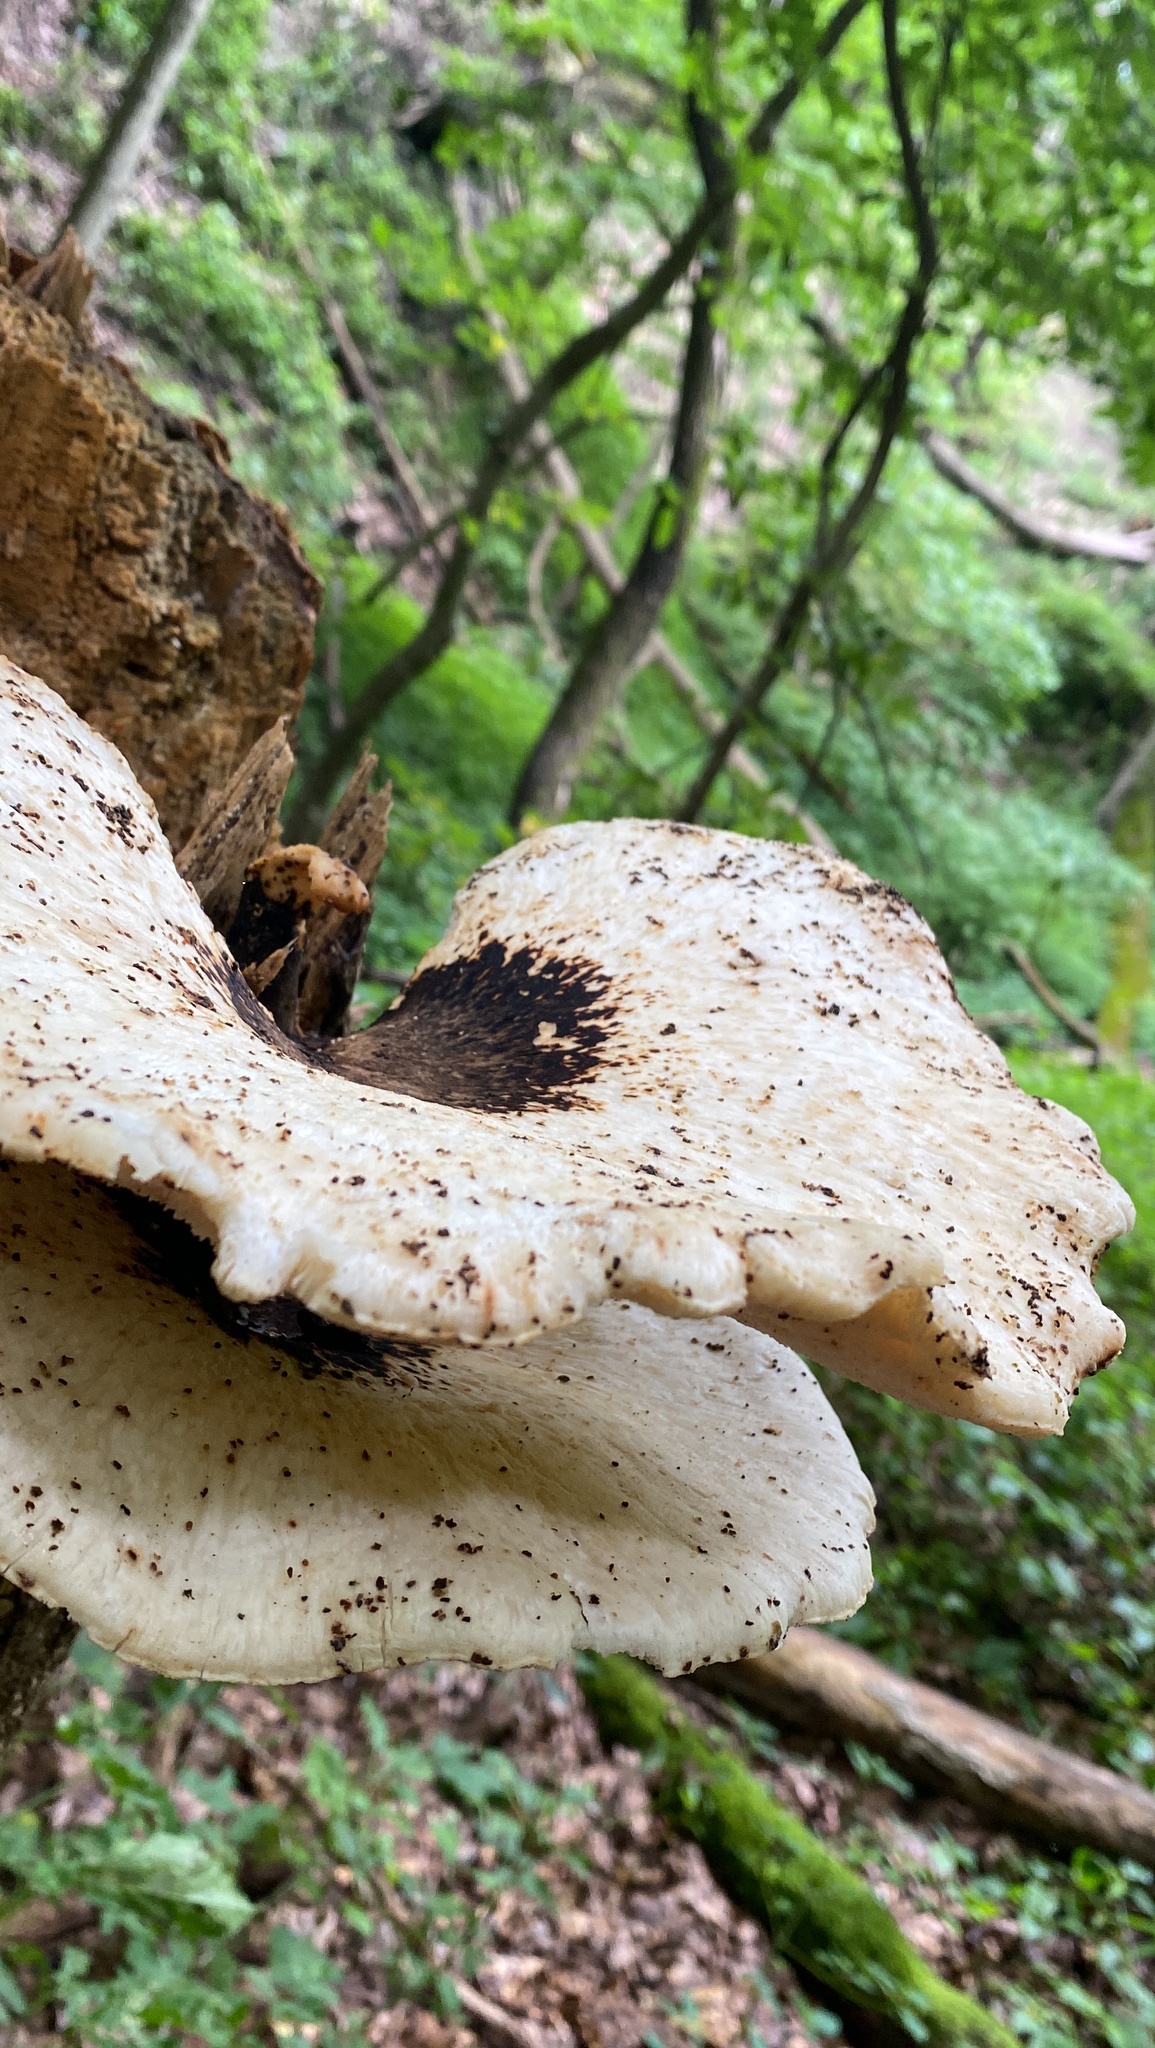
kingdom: Fungi
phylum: Basidiomycota
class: Agaricomycetes
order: Polyporales
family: Polyporaceae
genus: Cerioporus
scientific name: Cerioporus squamosus
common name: Dryad's saddle
